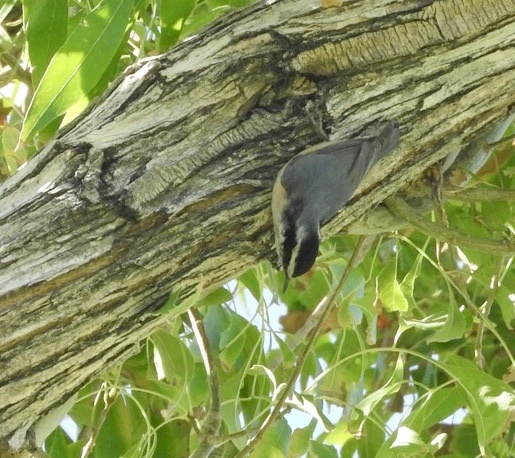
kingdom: Animalia
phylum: Chordata
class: Aves
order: Passeriformes
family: Sittidae
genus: Sitta
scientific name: Sitta canadensis
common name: Red-breasted nuthatch
